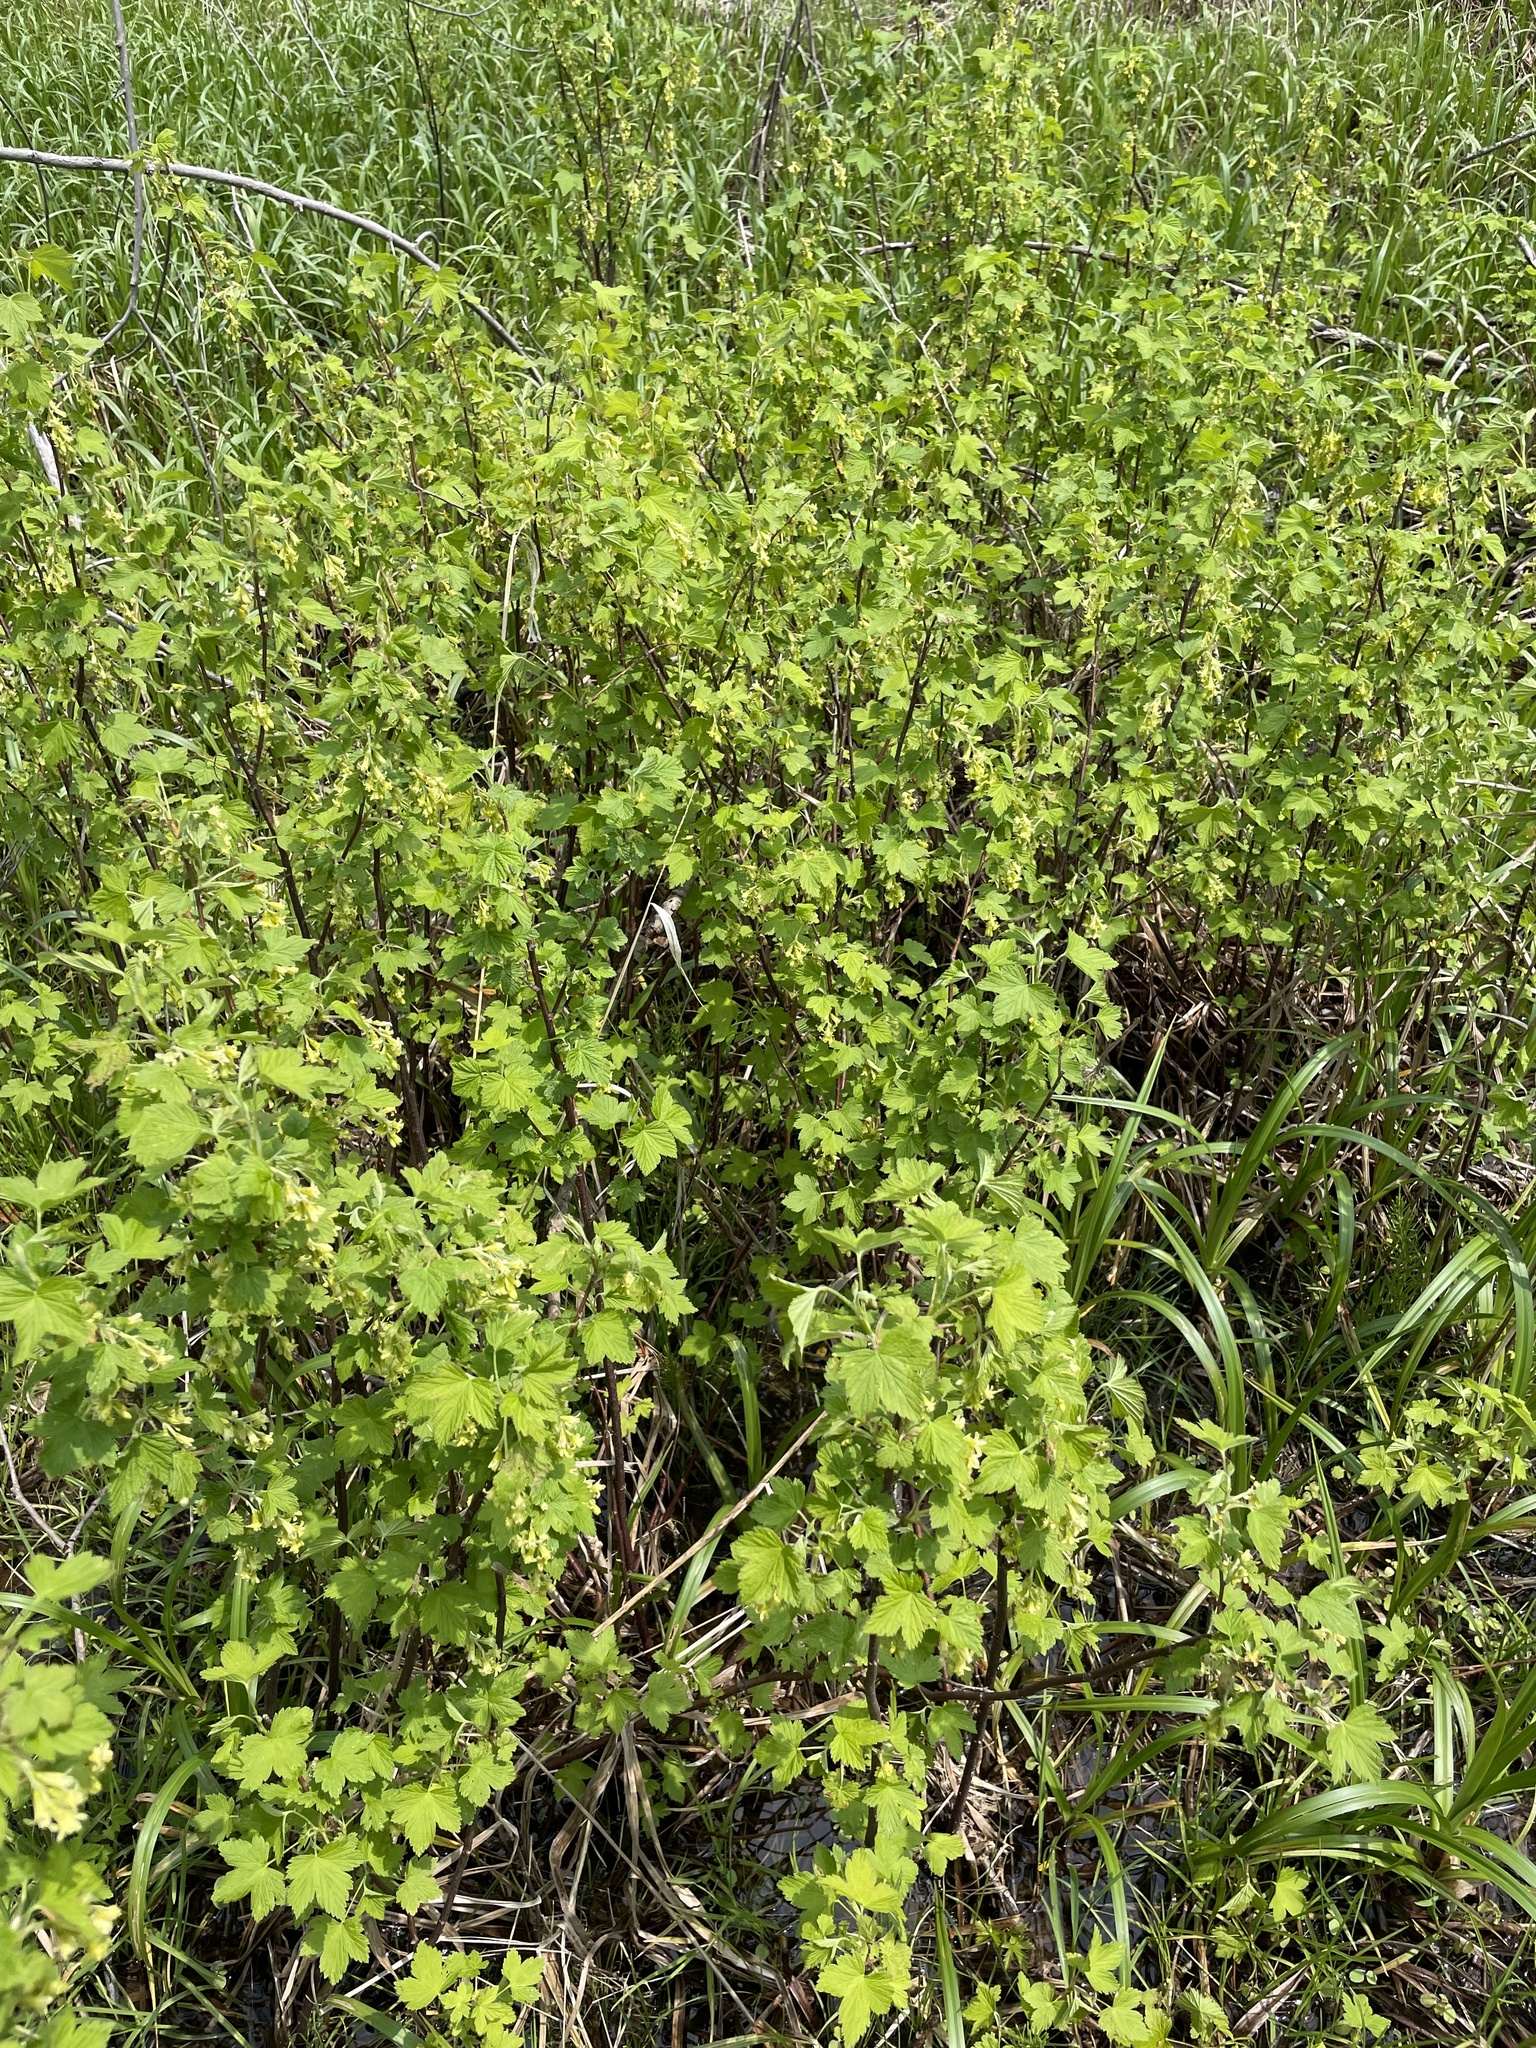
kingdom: Plantae
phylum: Tracheophyta
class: Magnoliopsida
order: Saxifragales
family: Grossulariaceae
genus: Ribes
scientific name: Ribes americanum
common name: American black currant
